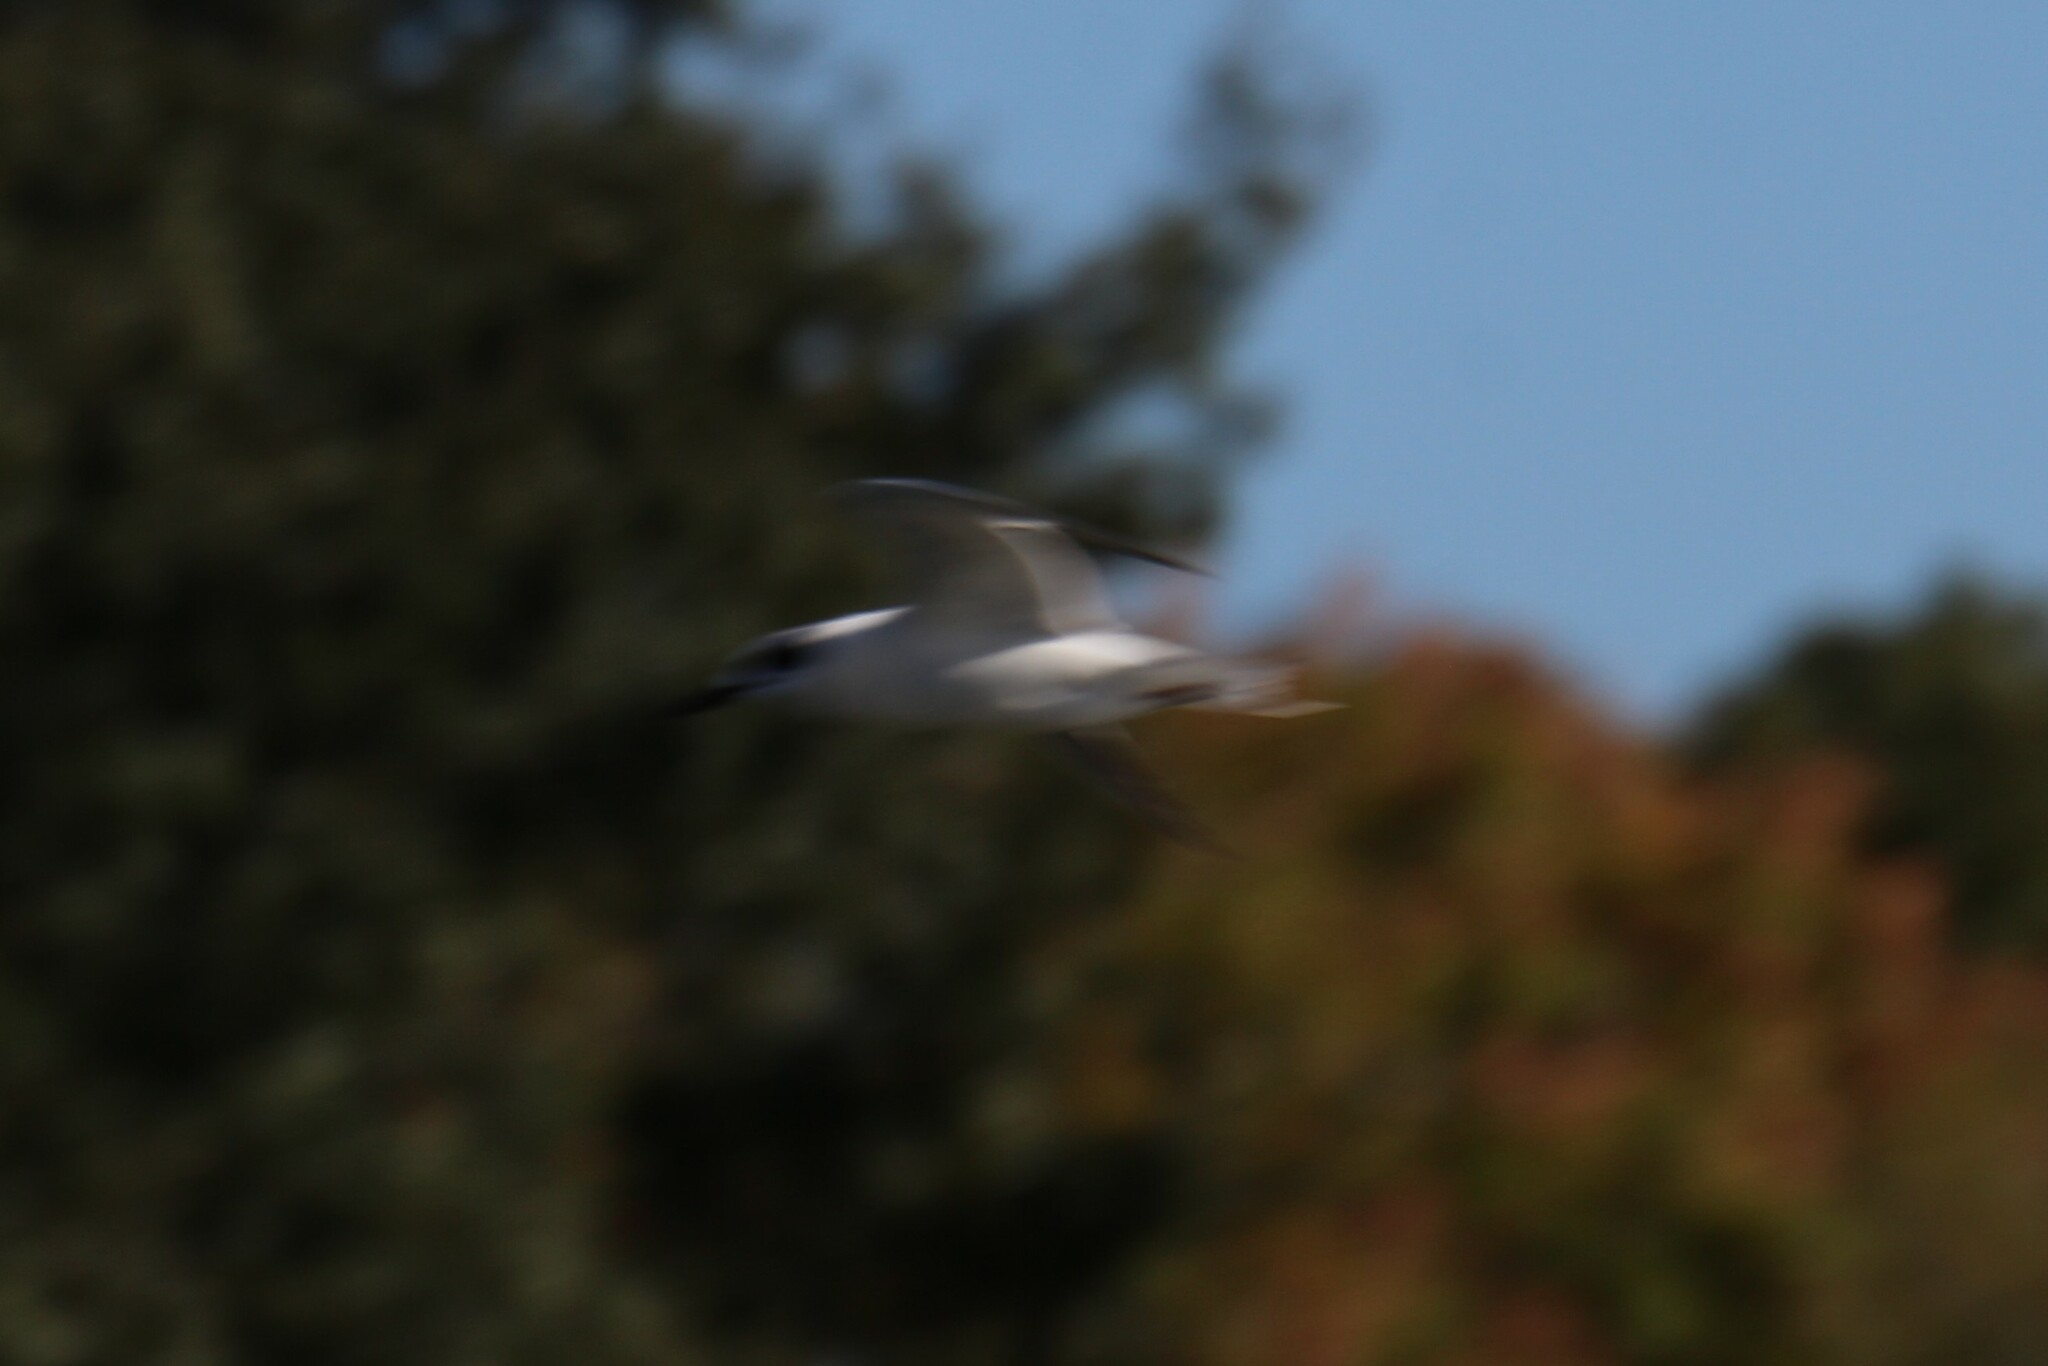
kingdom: Animalia
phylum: Chordata
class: Aves
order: Charadriiformes
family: Laridae
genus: Sterna
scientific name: Sterna forsteri
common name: Forster's tern
